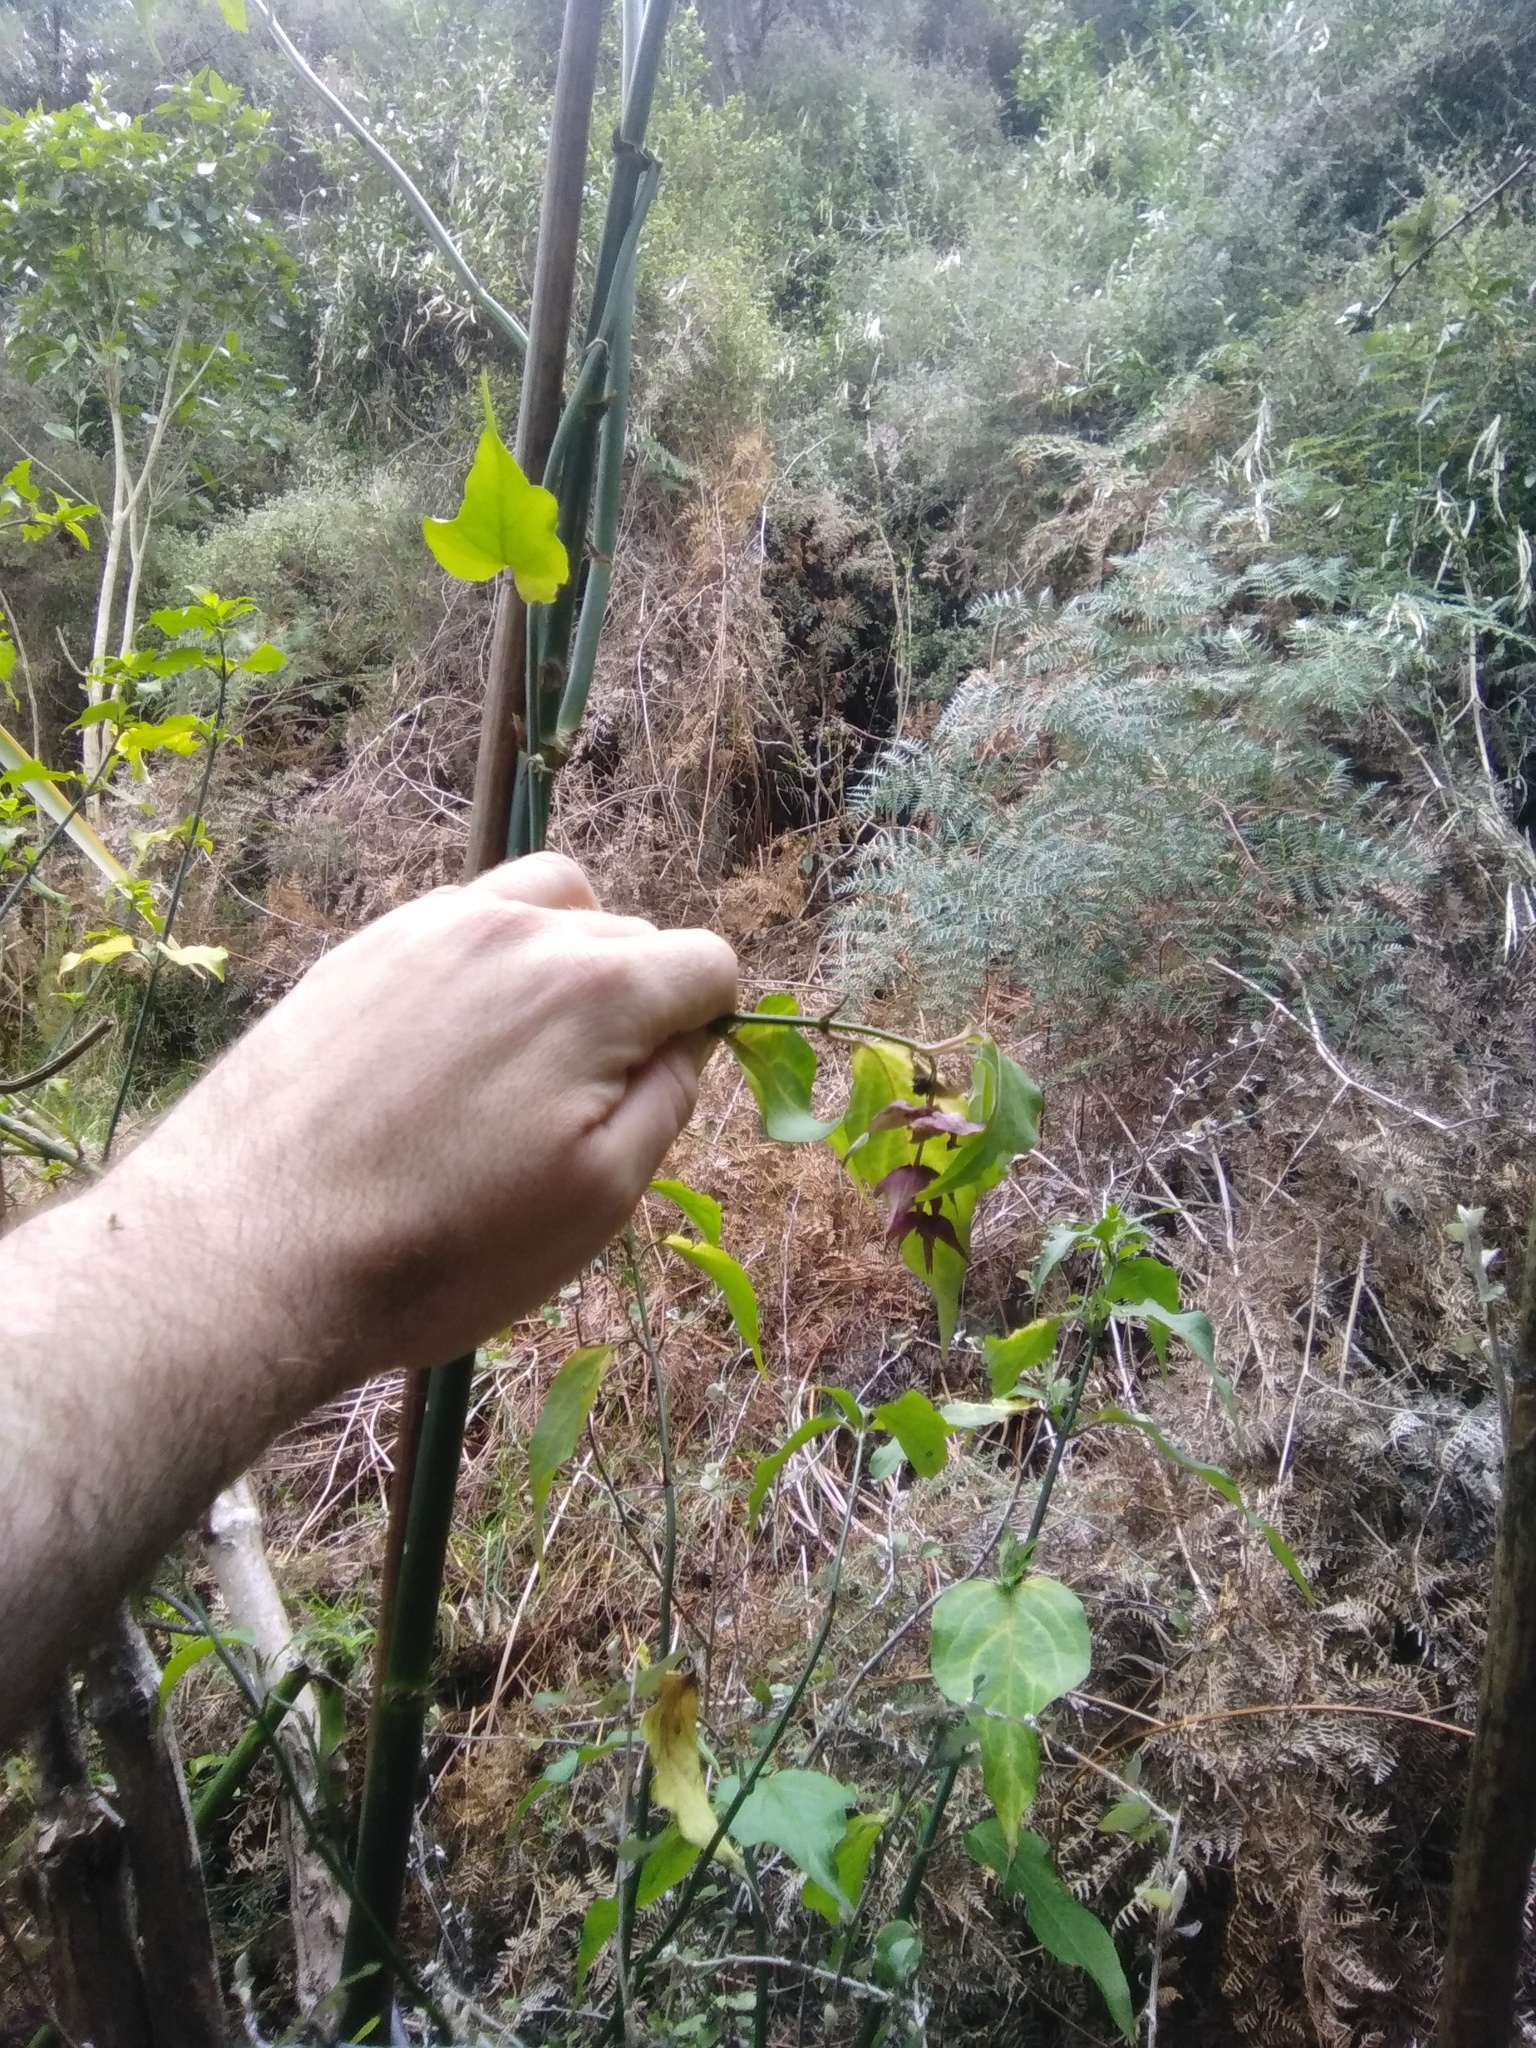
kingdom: Plantae
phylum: Tracheophyta
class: Magnoliopsida
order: Dipsacales
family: Caprifoliaceae
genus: Leycesteria
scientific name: Leycesteria formosa
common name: Himalayan honeysuckle
